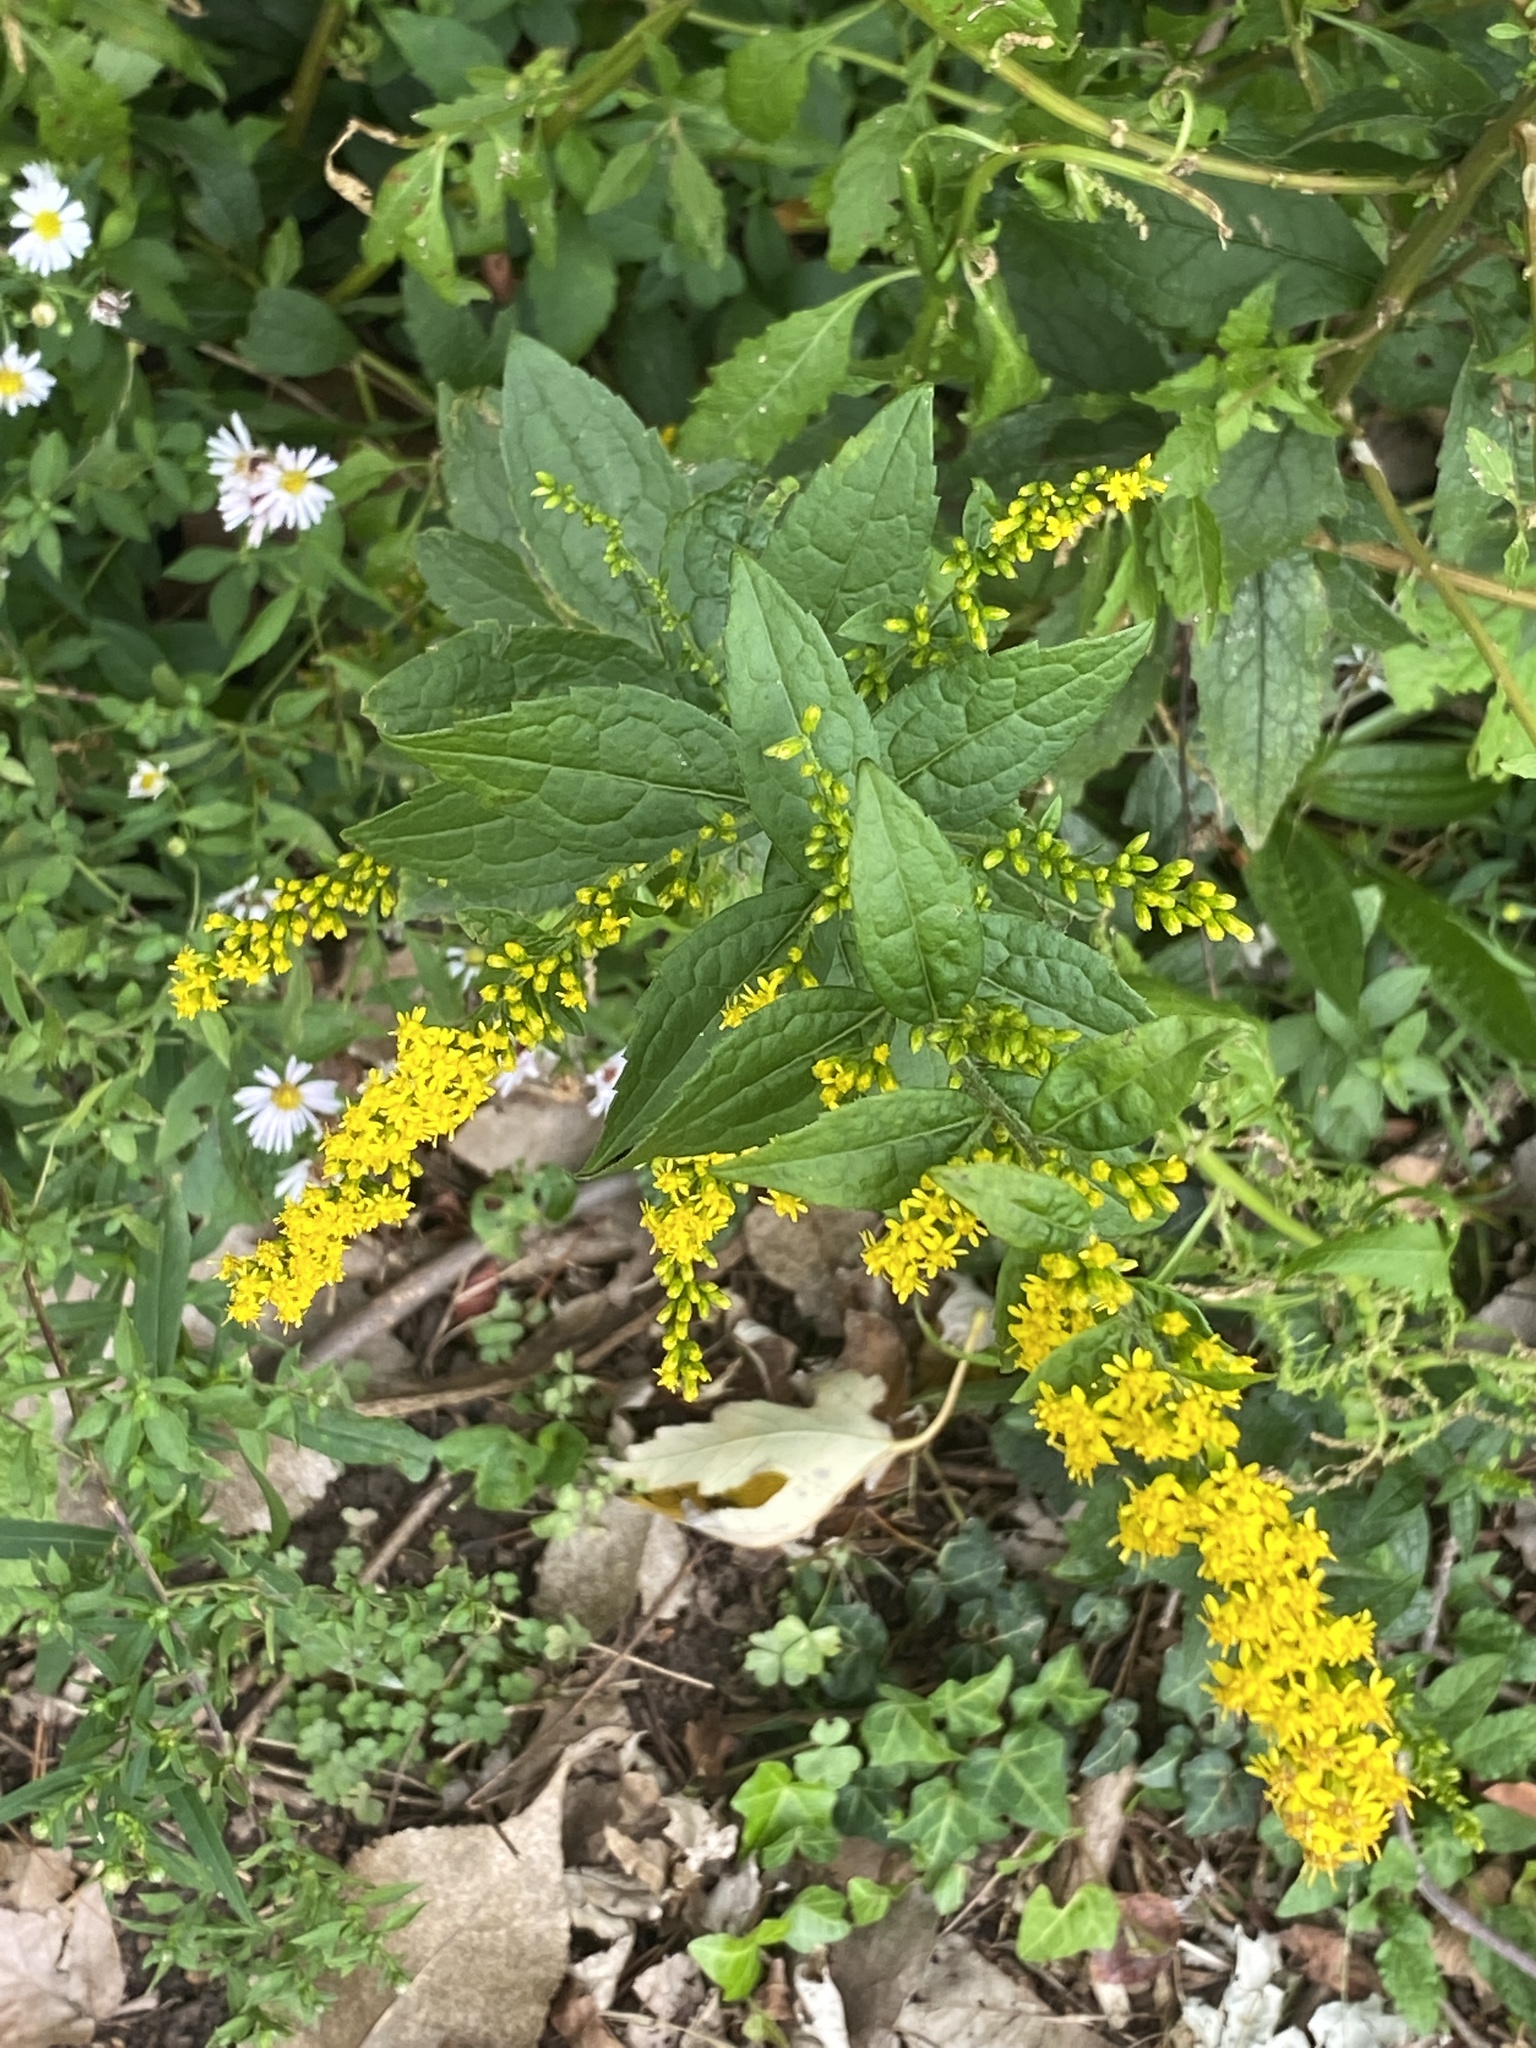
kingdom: Plantae
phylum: Tracheophyta
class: Magnoliopsida
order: Asterales
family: Asteraceae
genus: Solidago
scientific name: Solidago rugosa
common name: Rough-stemmed goldenrod
